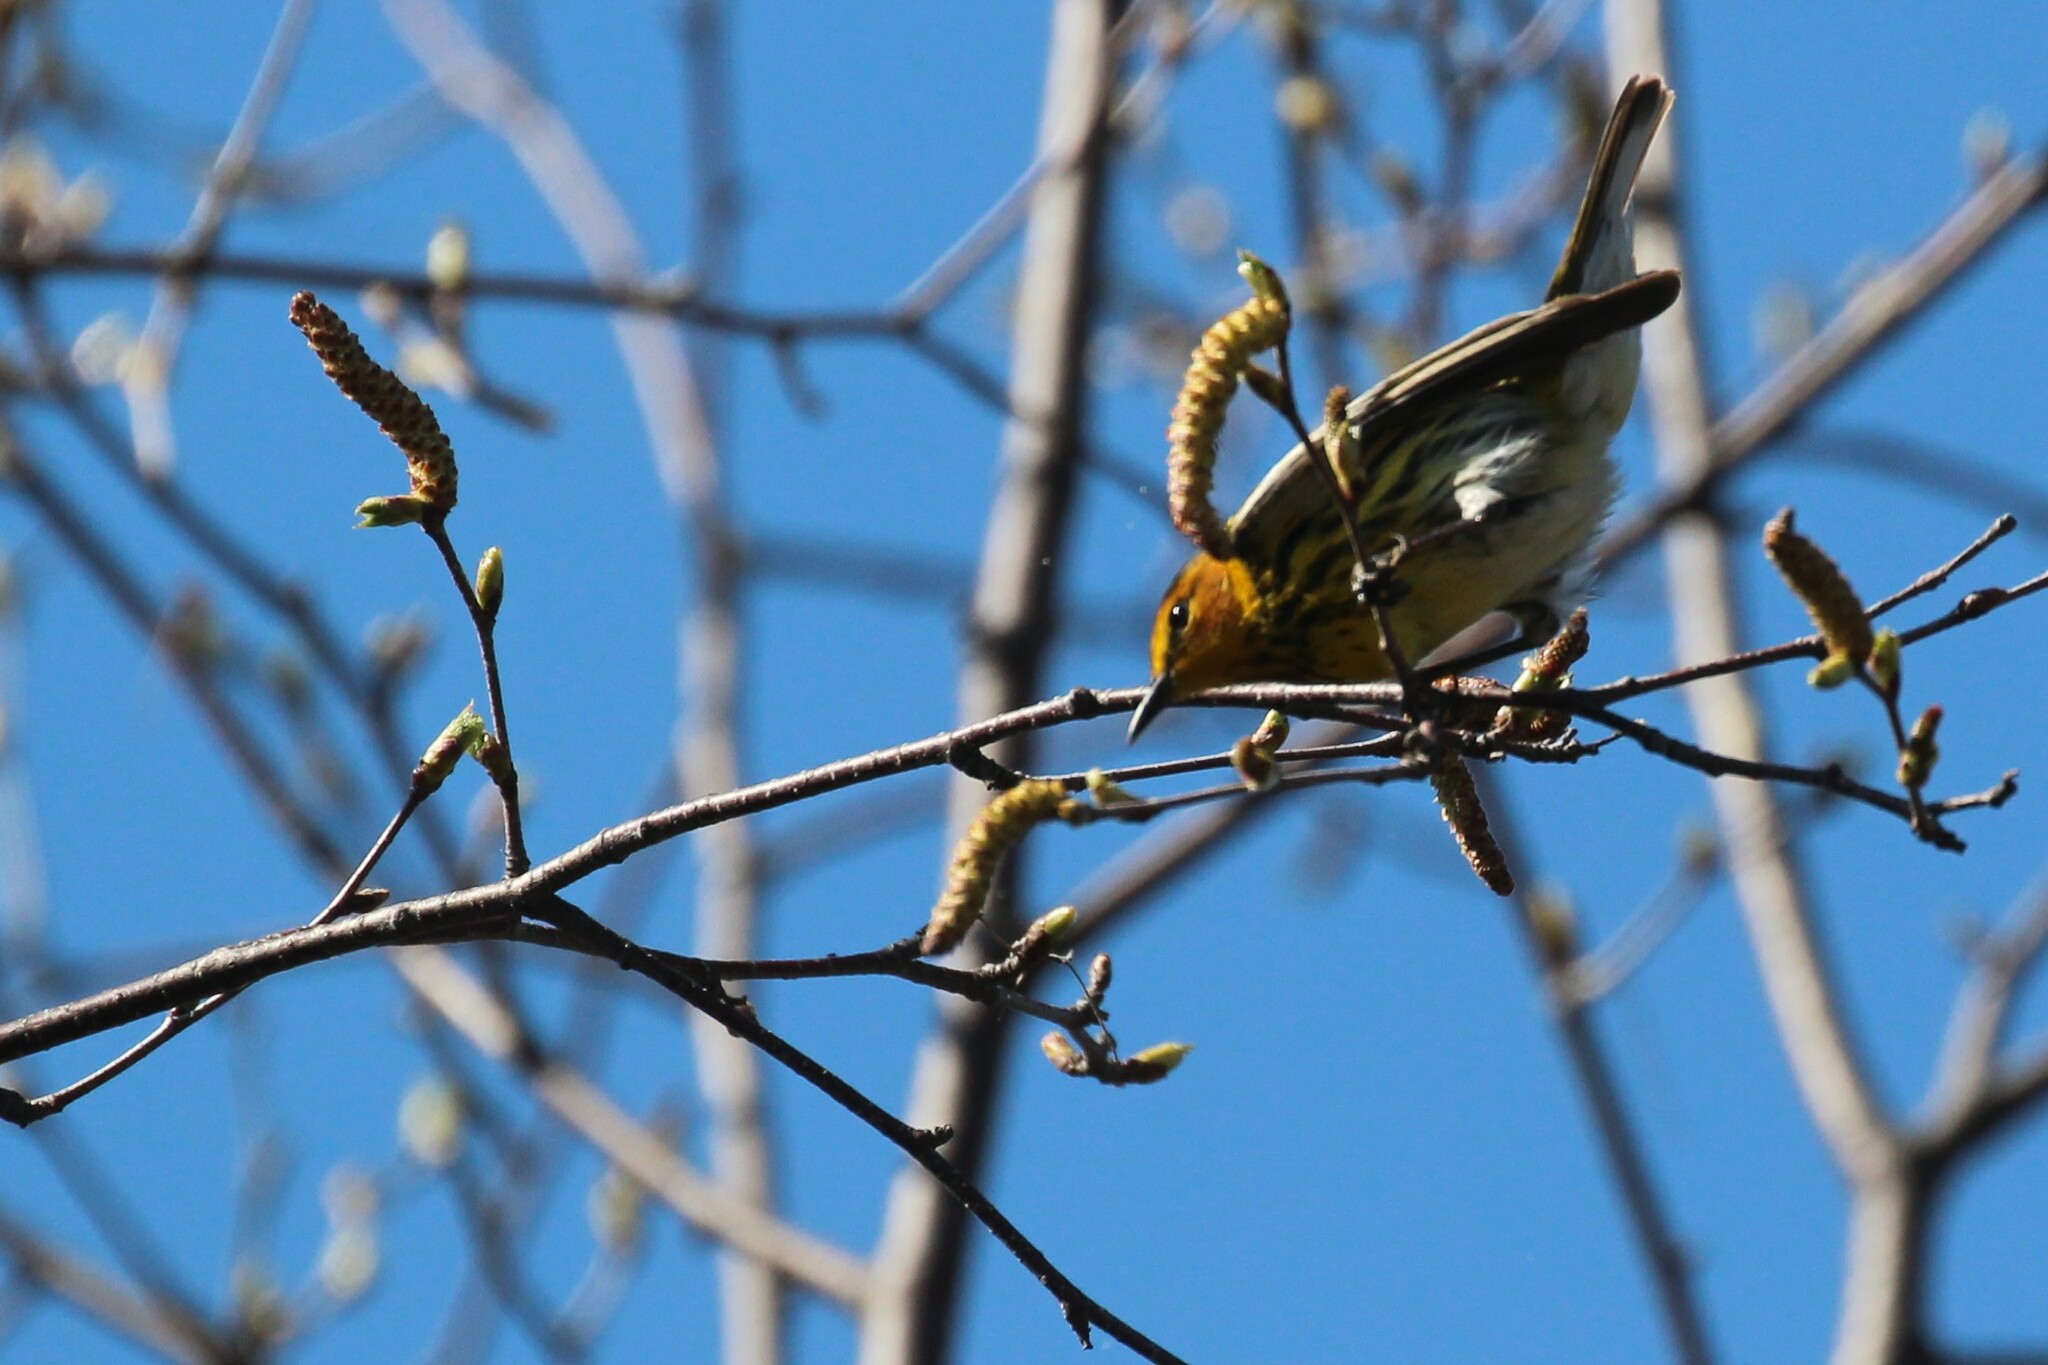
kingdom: Animalia
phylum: Chordata
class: Aves
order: Passeriformes
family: Parulidae
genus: Setophaga
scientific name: Setophaga tigrina
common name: Cape may warbler
